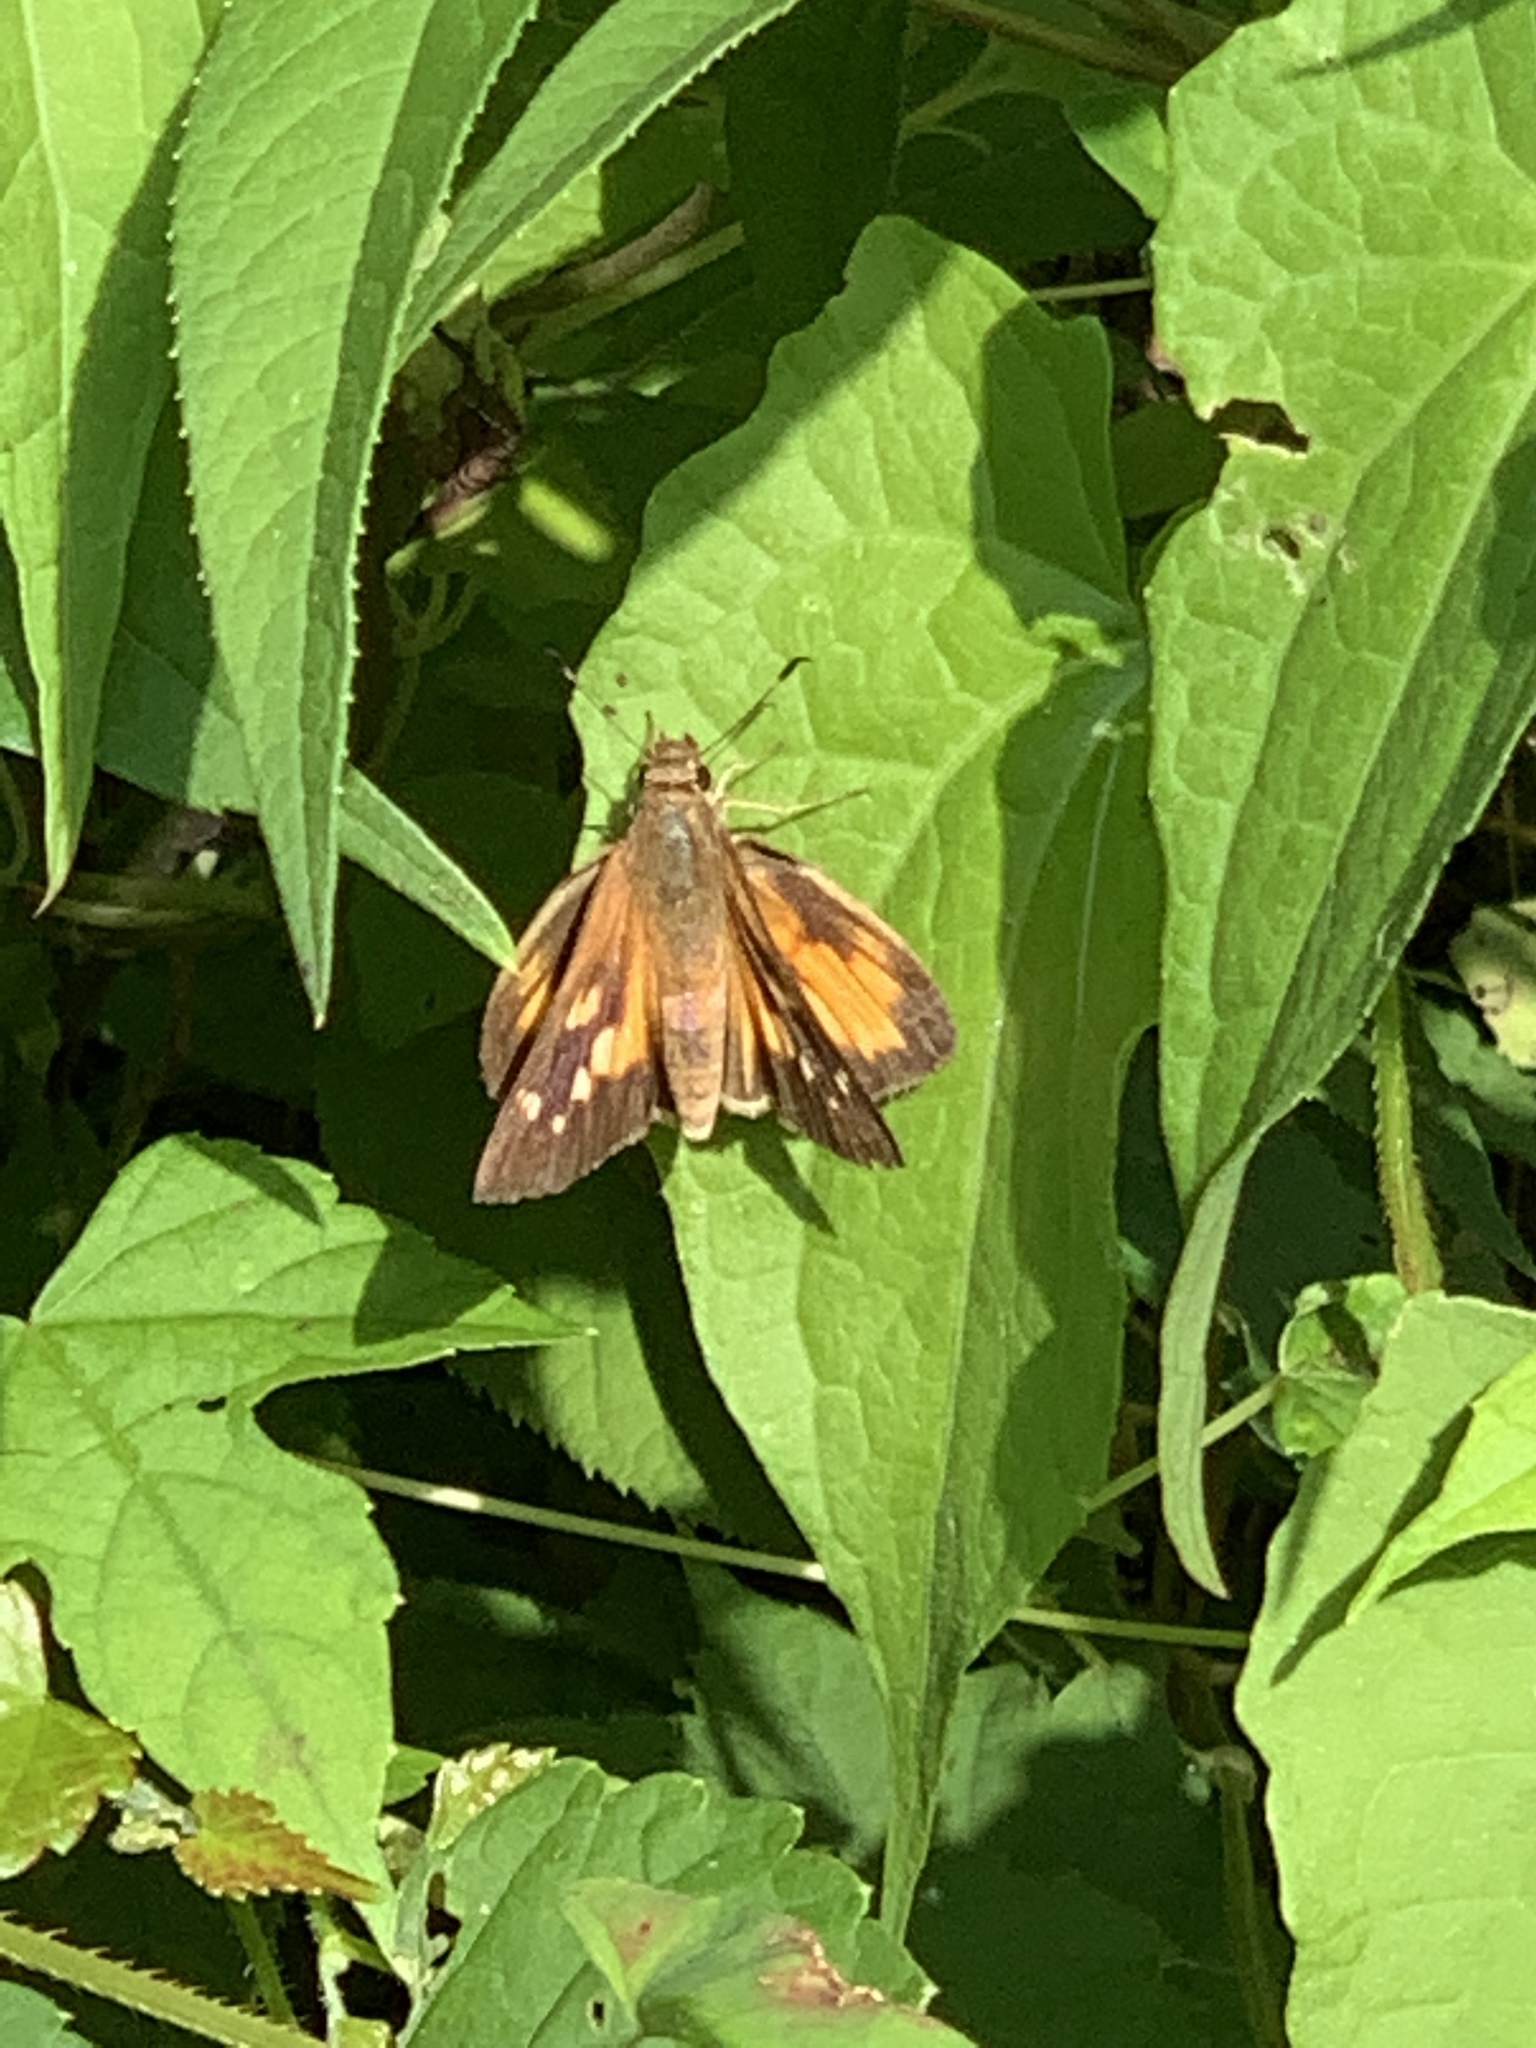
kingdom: Animalia
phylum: Arthropoda
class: Insecta
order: Lepidoptera
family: Hesperiidae
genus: Poanes
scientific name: Poanes viator
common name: Broad-winged skipper
